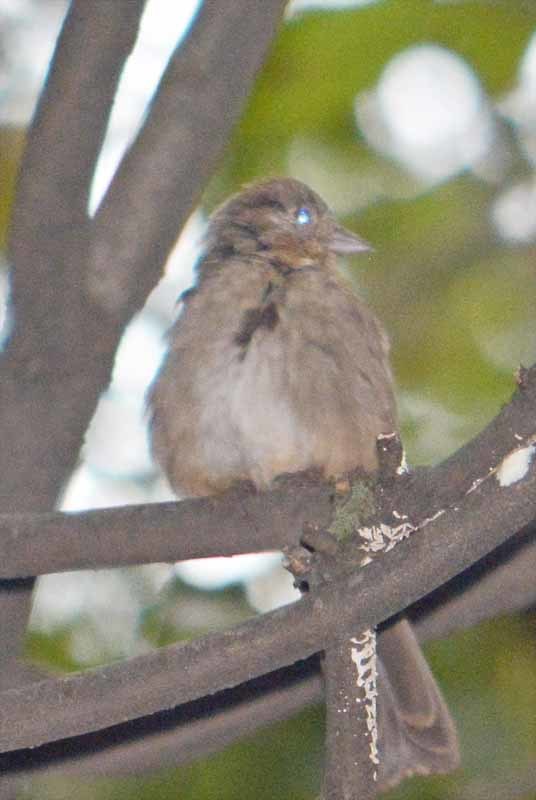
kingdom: Animalia
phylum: Chordata
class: Aves
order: Passeriformes
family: Passerellidae
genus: Melozone
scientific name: Melozone fusca
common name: Canyon towhee
